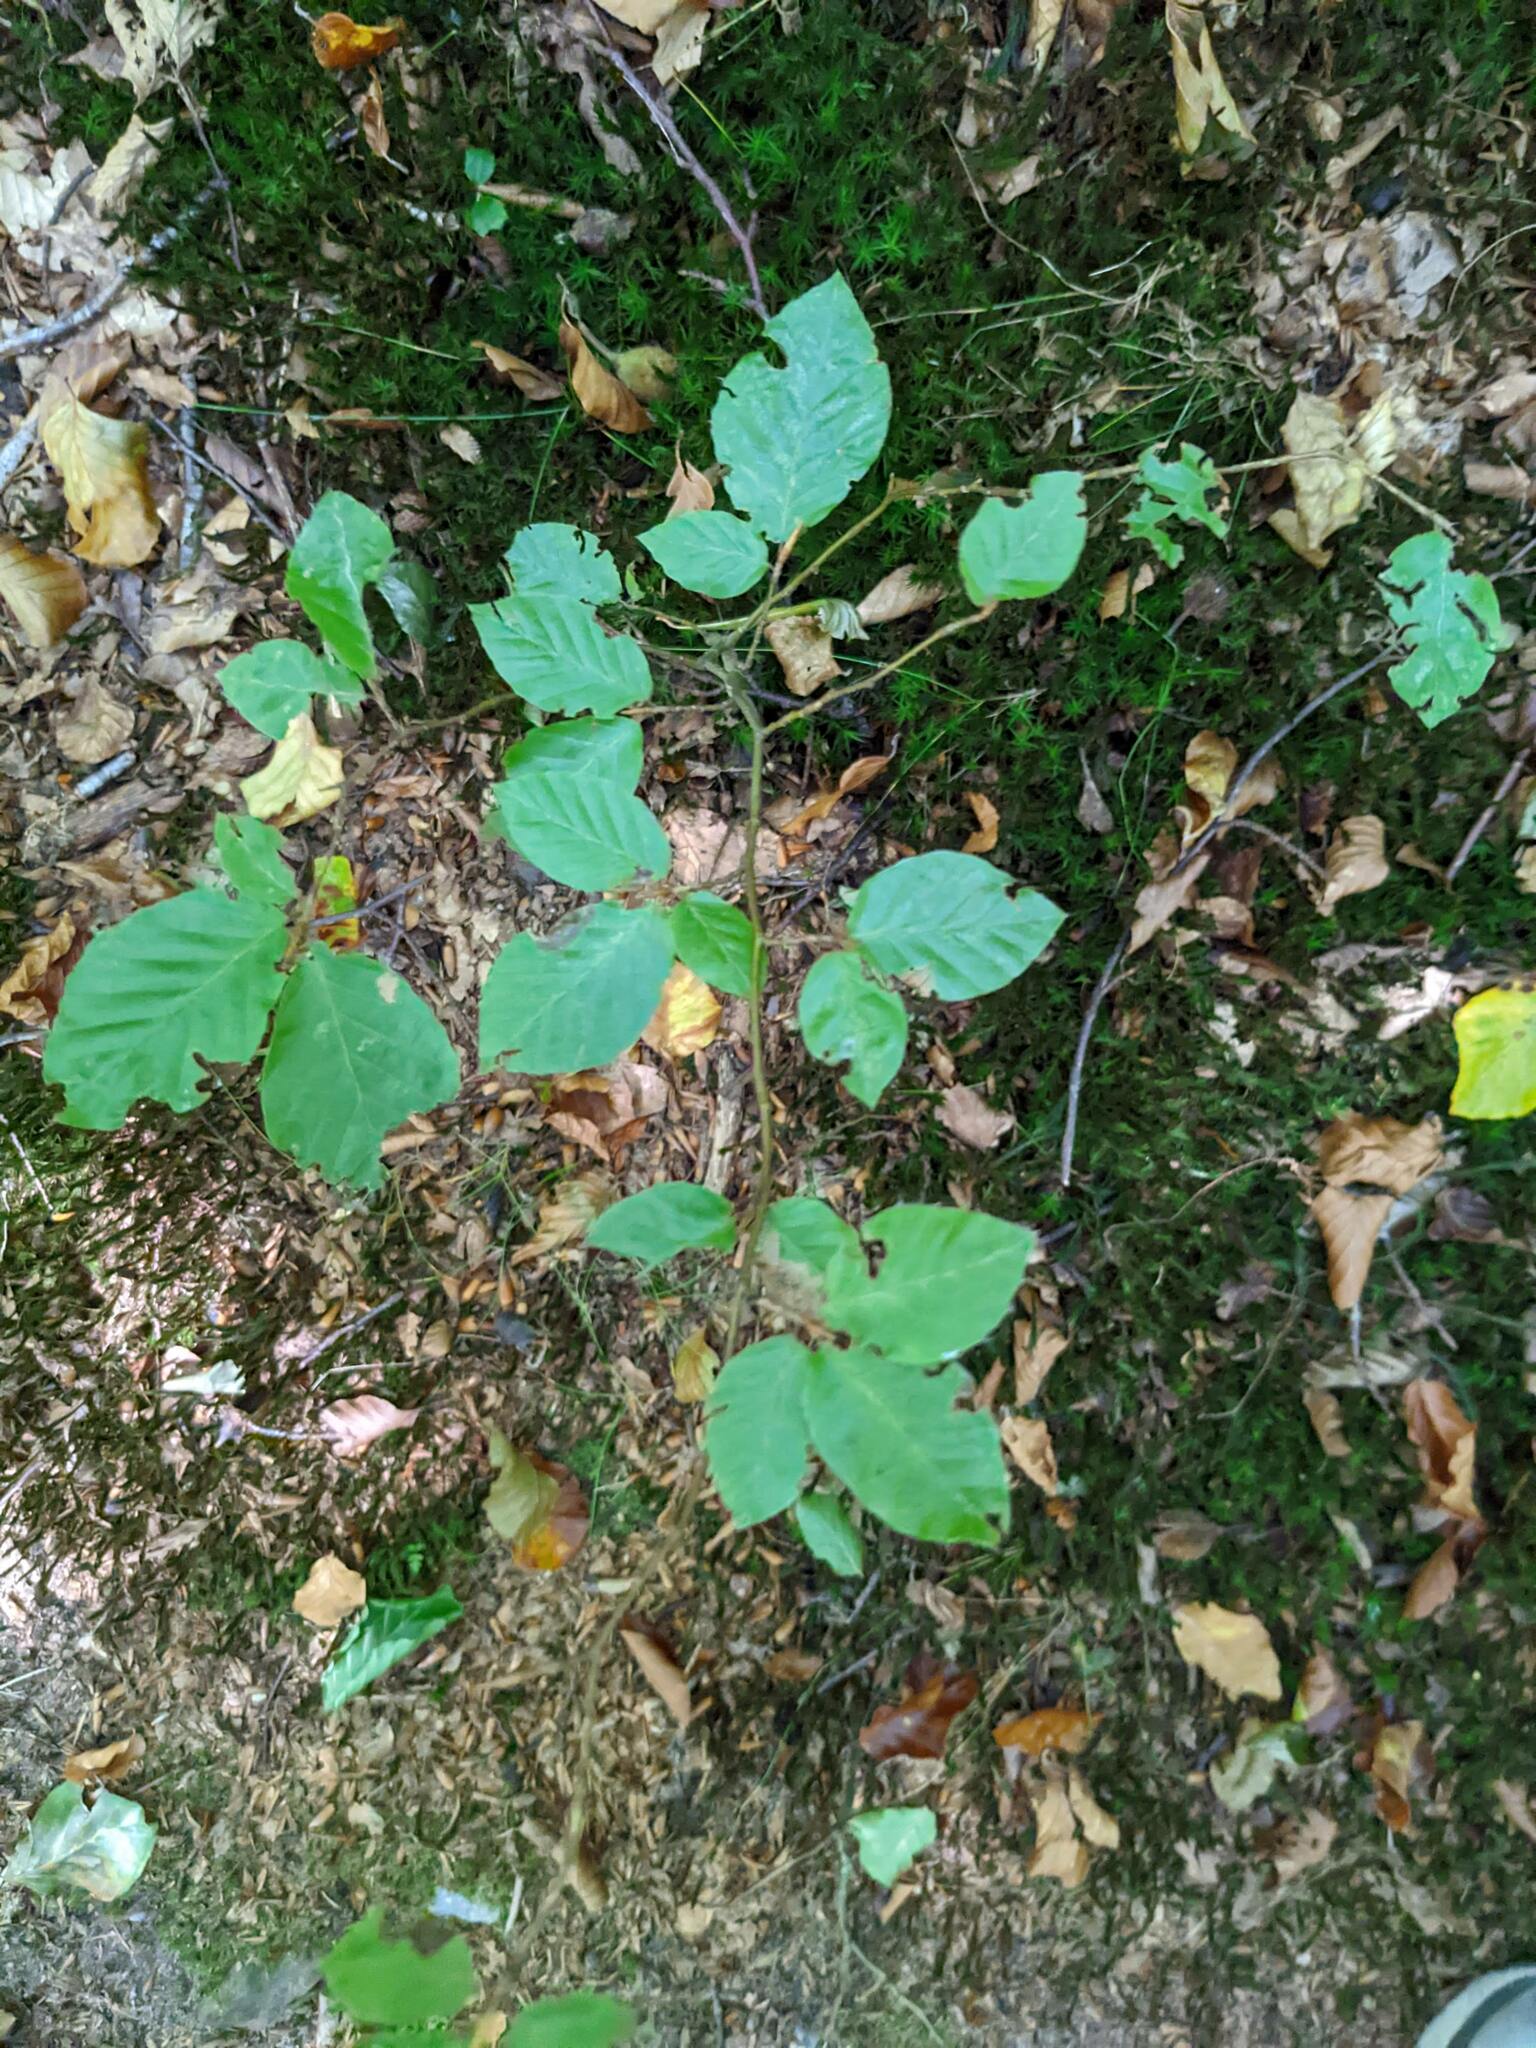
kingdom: Plantae
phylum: Tracheophyta
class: Magnoliopsida
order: Fagales
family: Fagaceae
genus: Fagus
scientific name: Fagus sylvatica
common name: Beech
